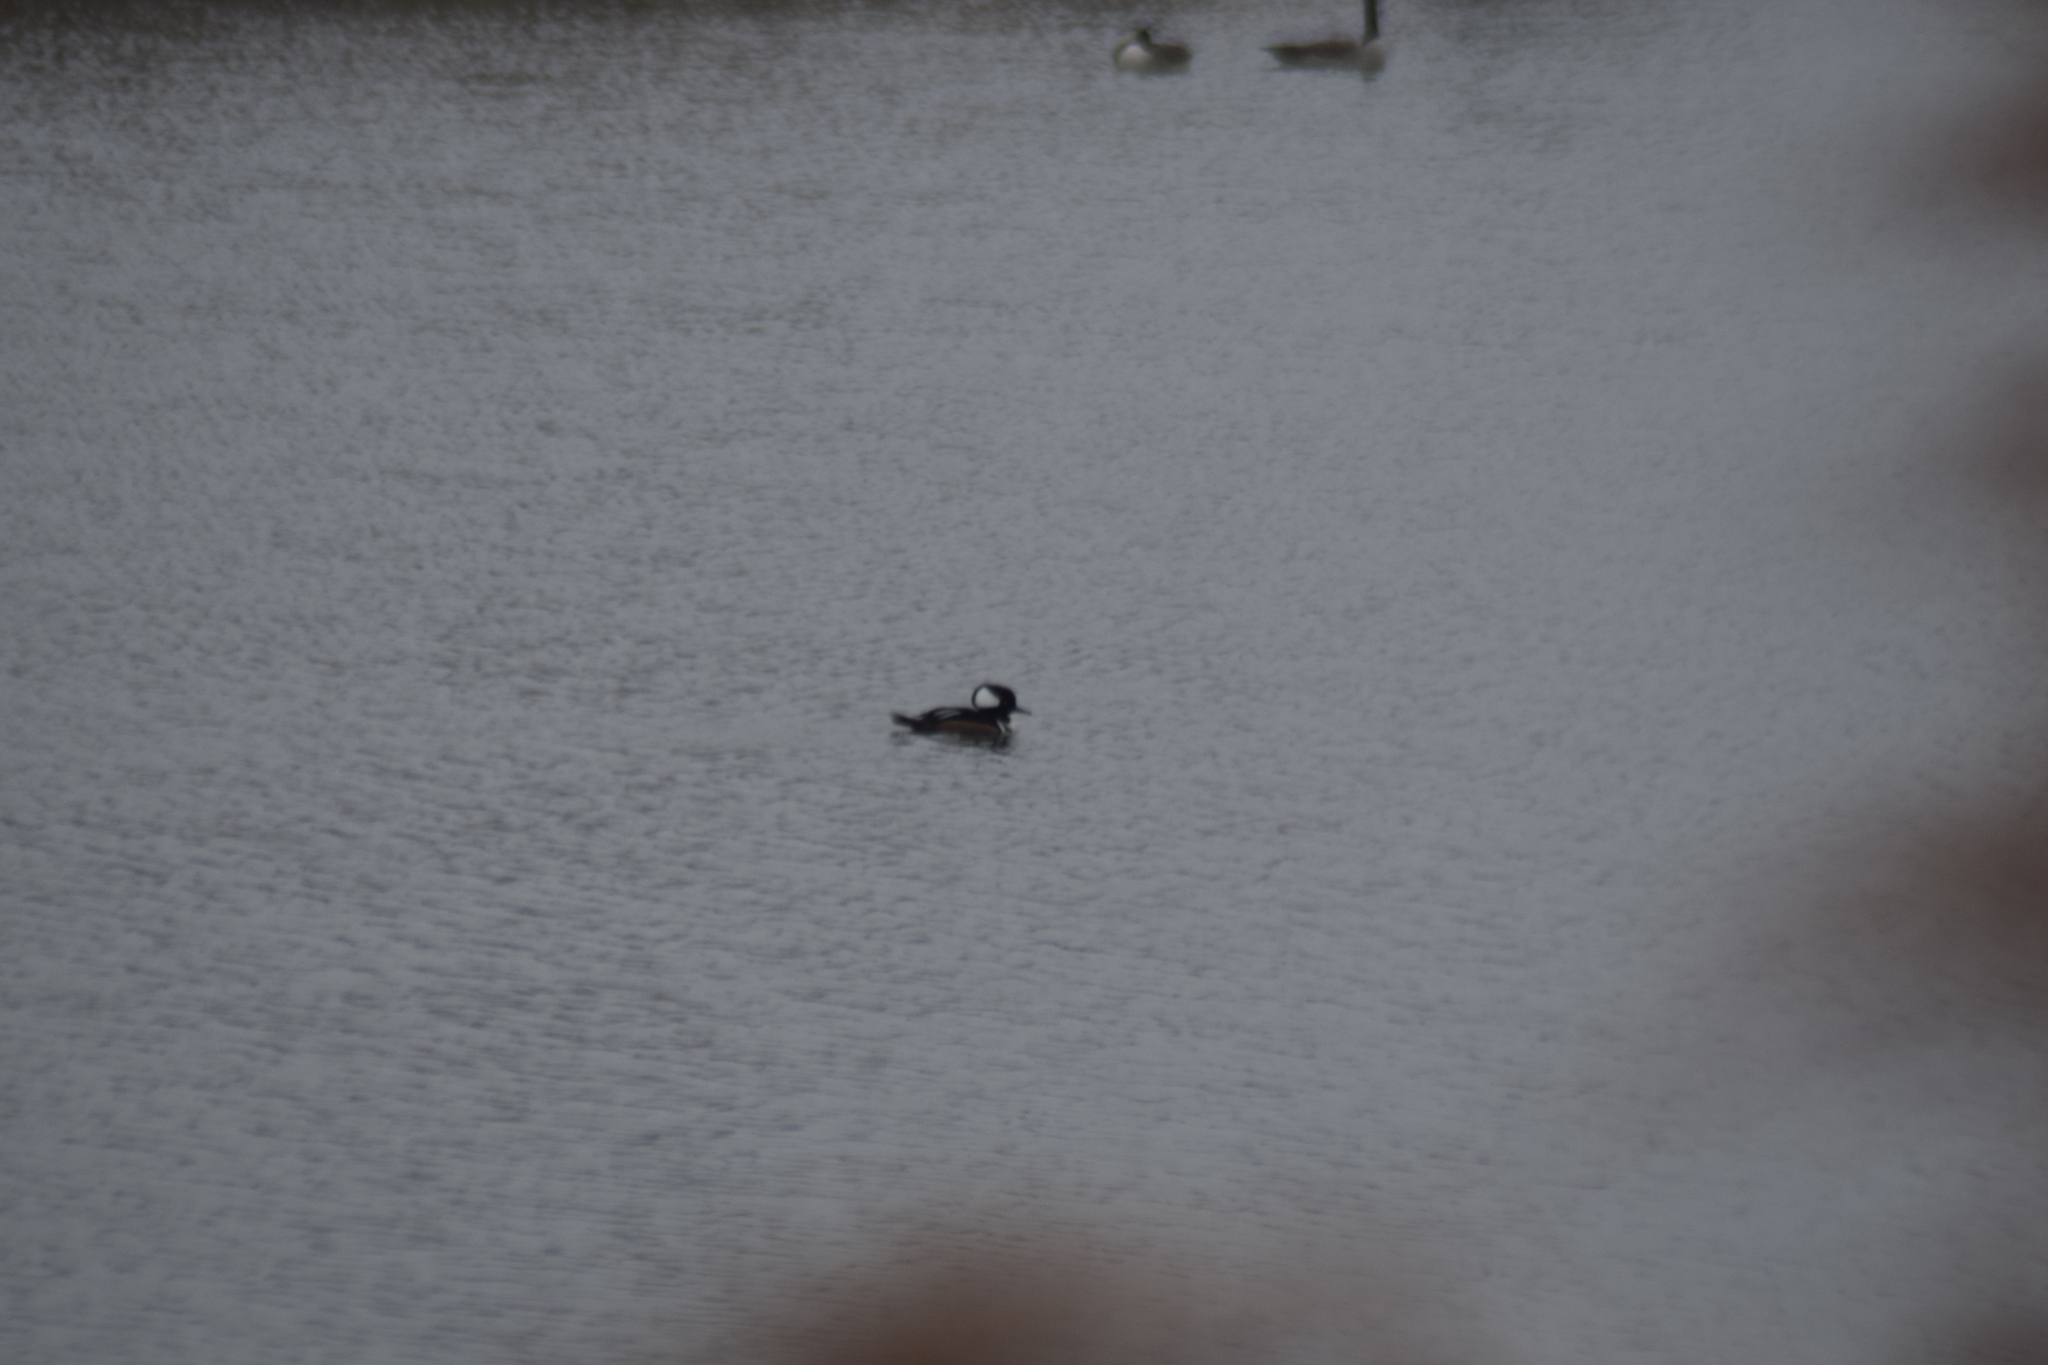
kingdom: Animalia
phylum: Chordata
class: Aves
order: Anseriformes
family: Anatidae
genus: Lophodytes
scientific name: Lophodytes cucullatus
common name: Hooded merganser
